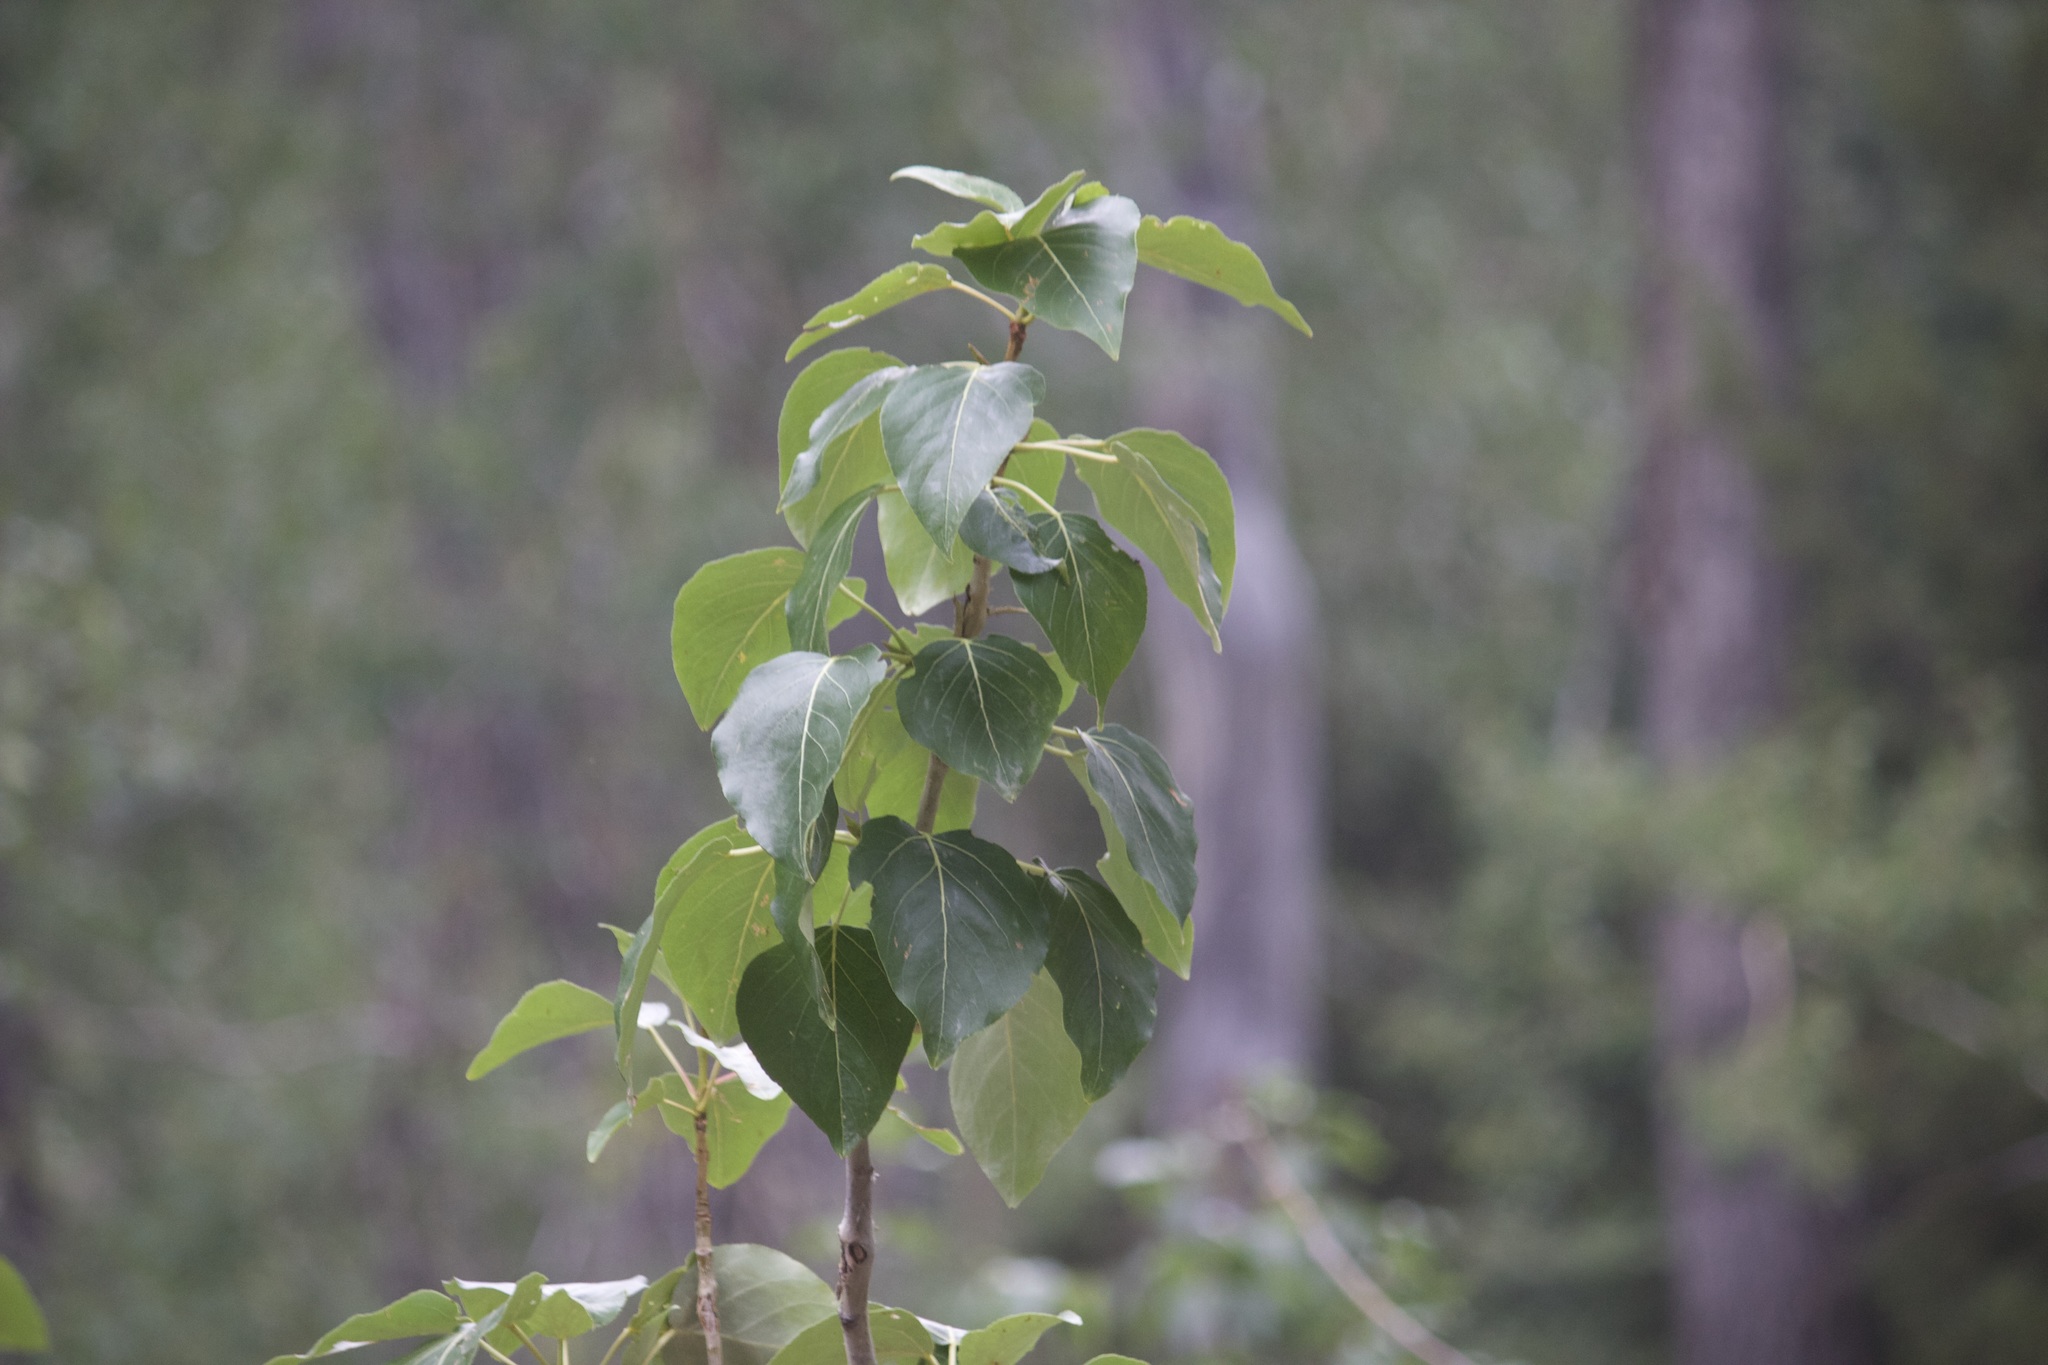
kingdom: Plantae
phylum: Tracheophyta
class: Magnoliopsida
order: Malpighiales
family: Salicaceae
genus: Populus
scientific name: Populus trichocarpa
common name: Black cottonwood
